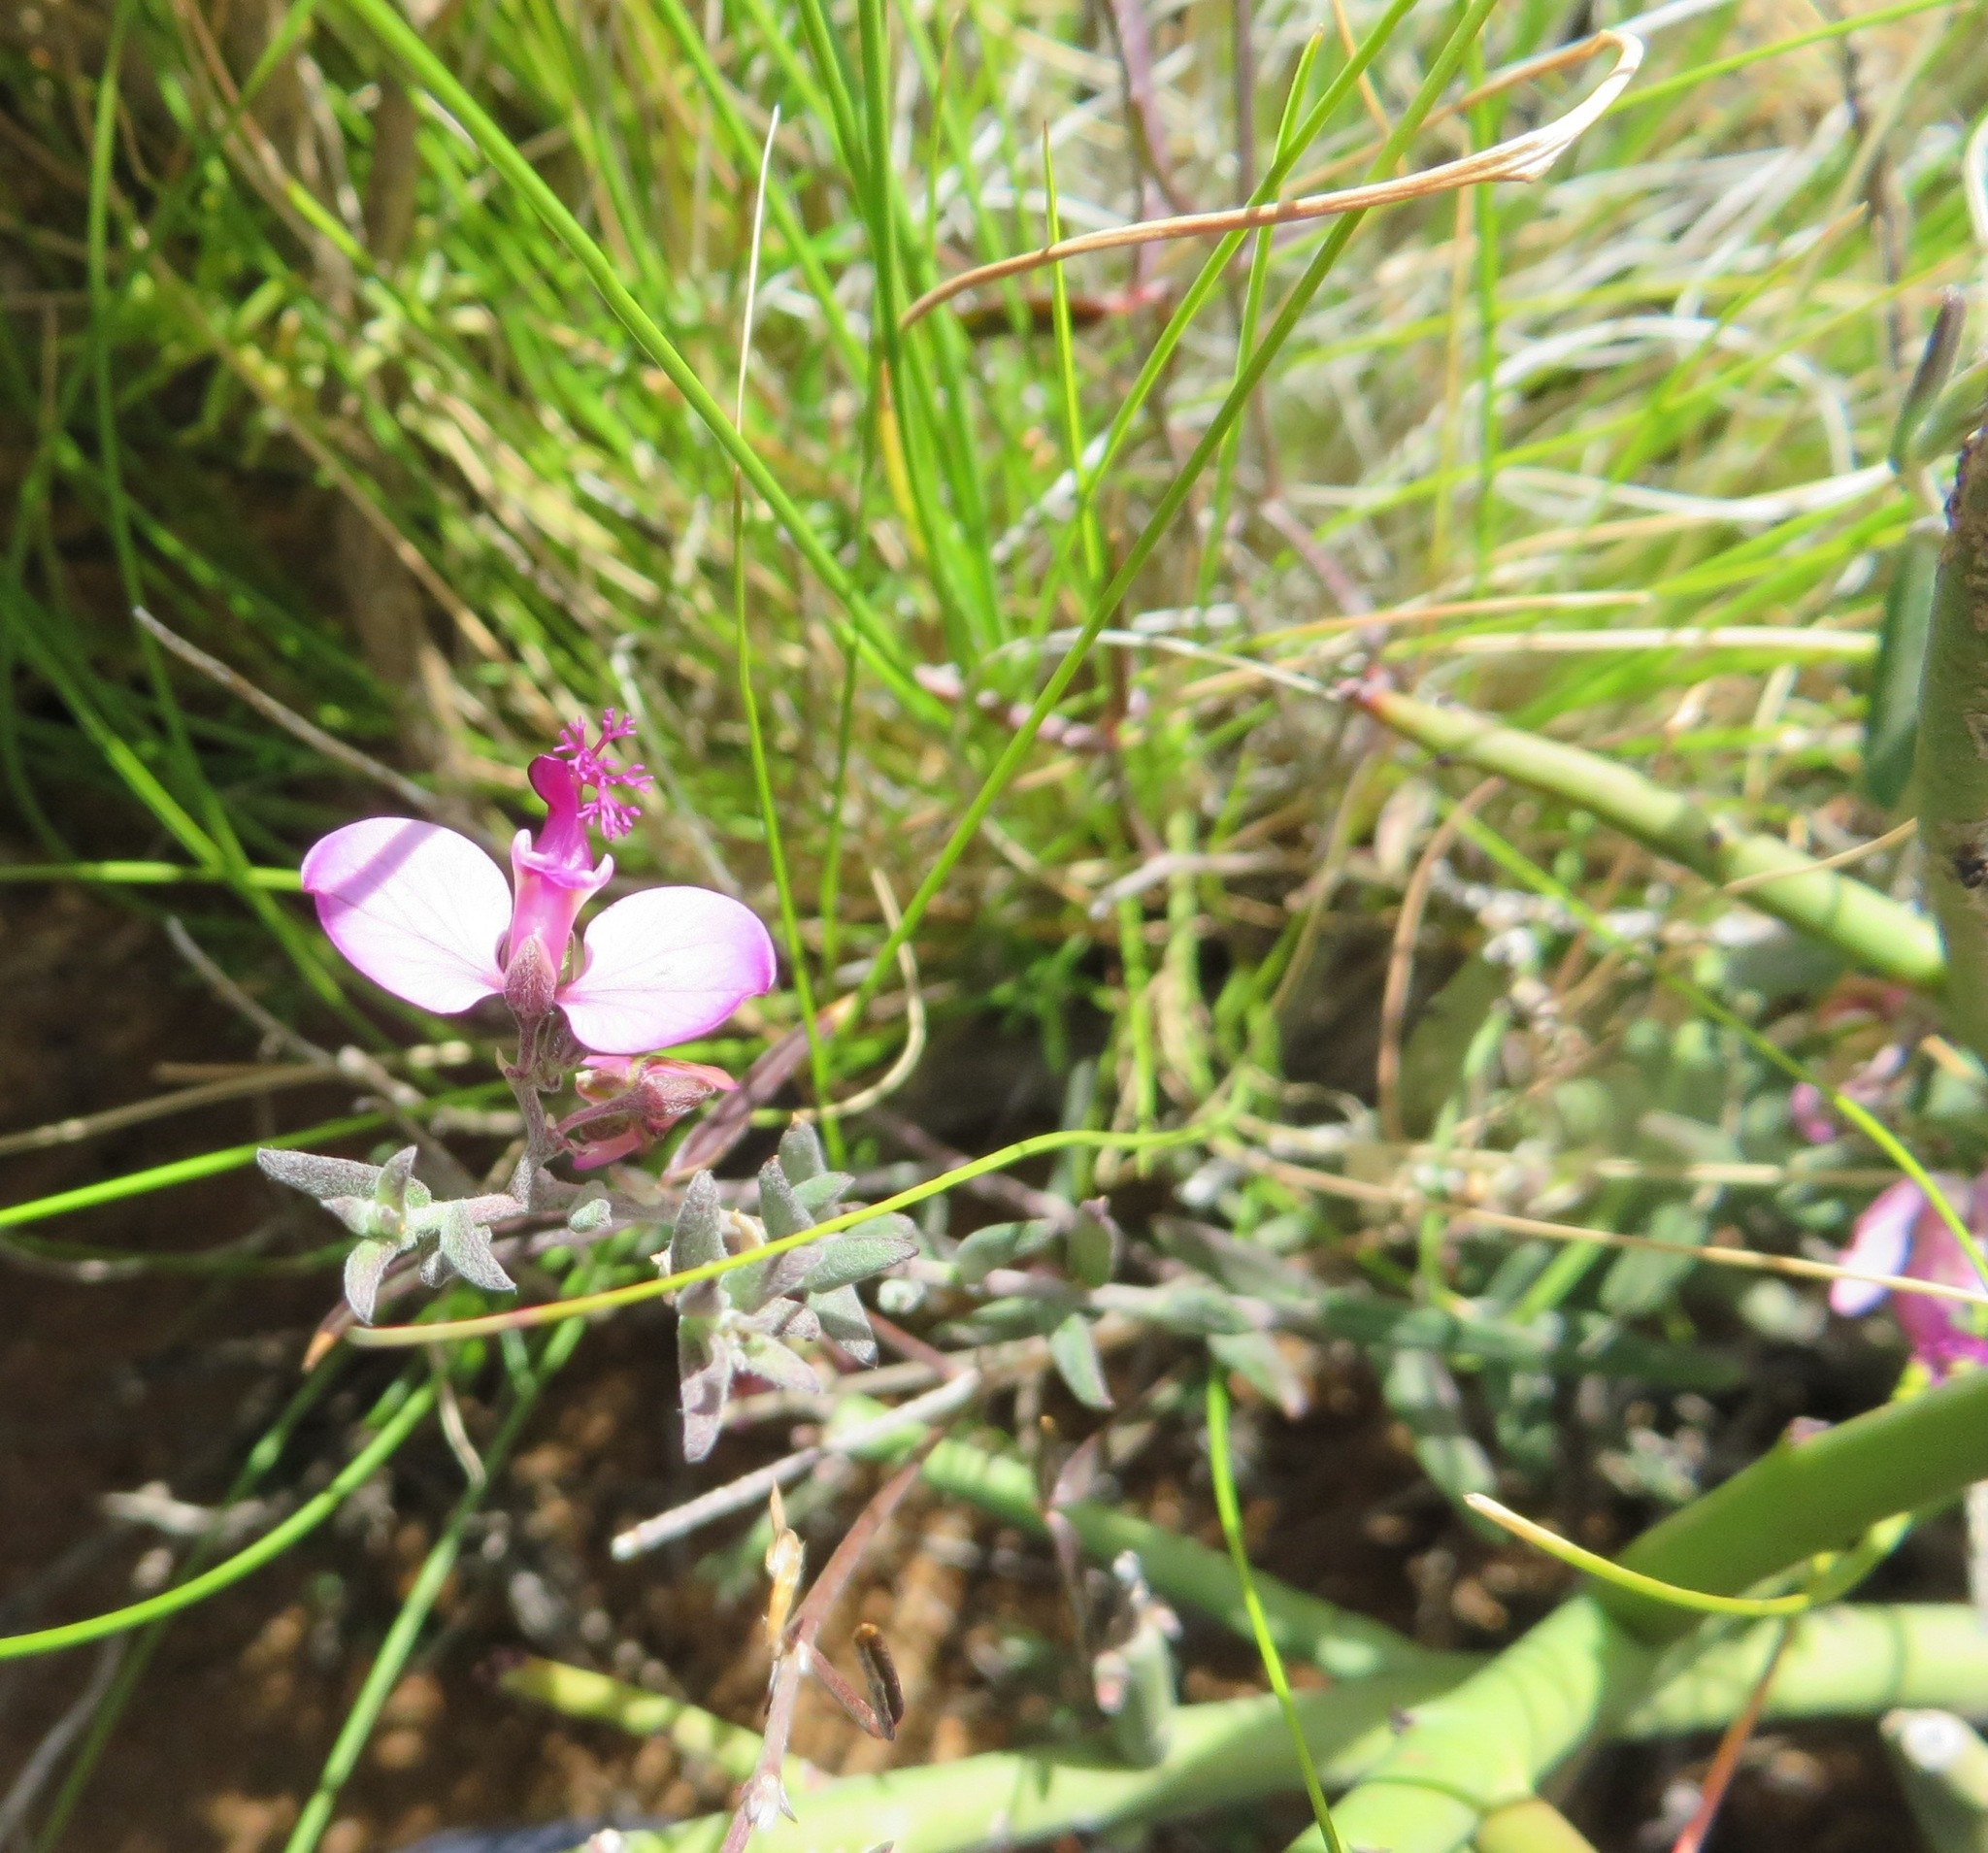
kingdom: Plantae
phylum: Tracheophyta
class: Magnoliopsida
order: Fabales
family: Polygalaceae
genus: Polygala
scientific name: Polygala scabra
